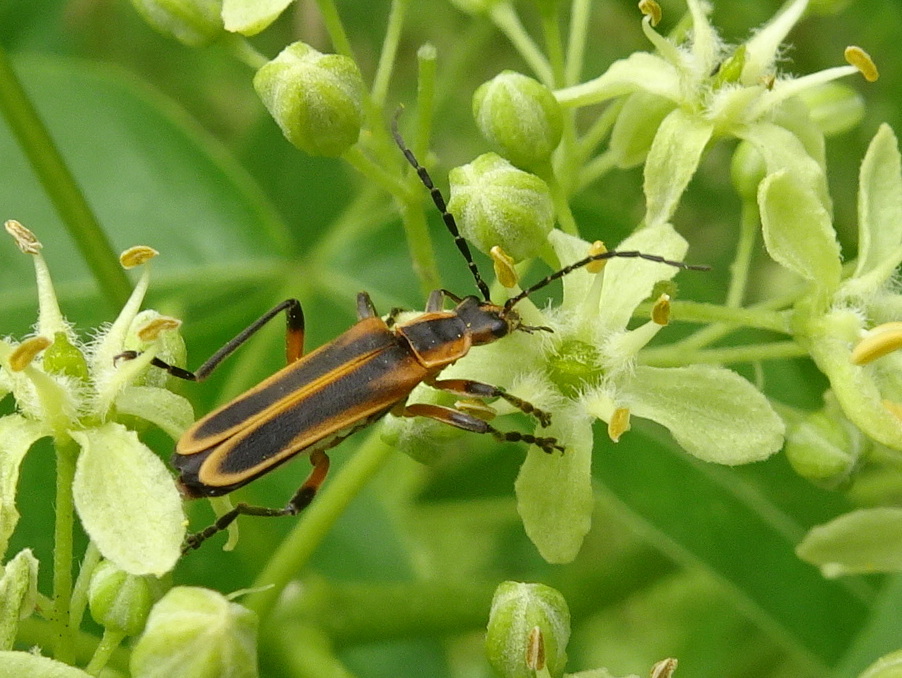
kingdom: Animalia
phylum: Arthropoda
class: Insecta
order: Coleoptera
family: Cantharidae
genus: Chauliognathus
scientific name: Chauliognathus marginatus
